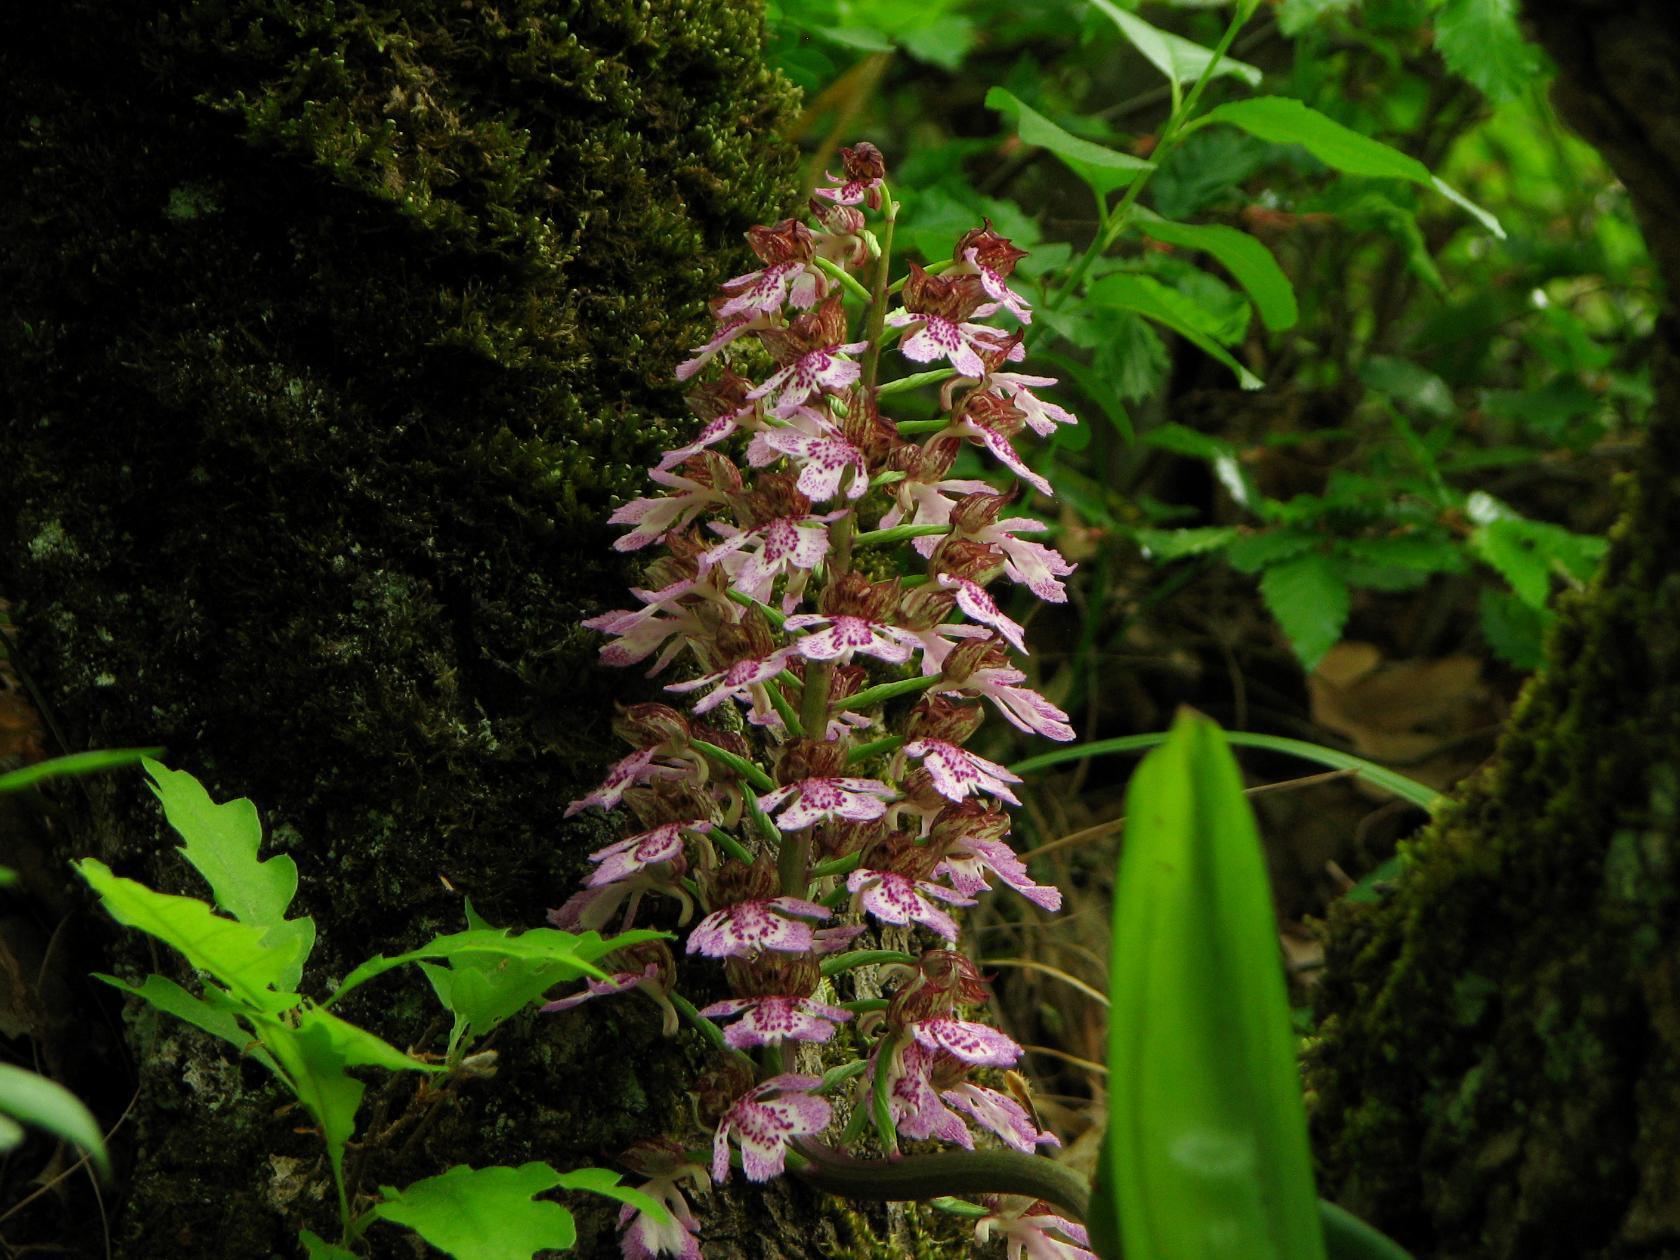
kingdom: Plantae
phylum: Tracheophyta
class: Liliopsida
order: Asparagales
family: Orchidaceae
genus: Orchis
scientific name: Orchis purpurea
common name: Lady orchid
